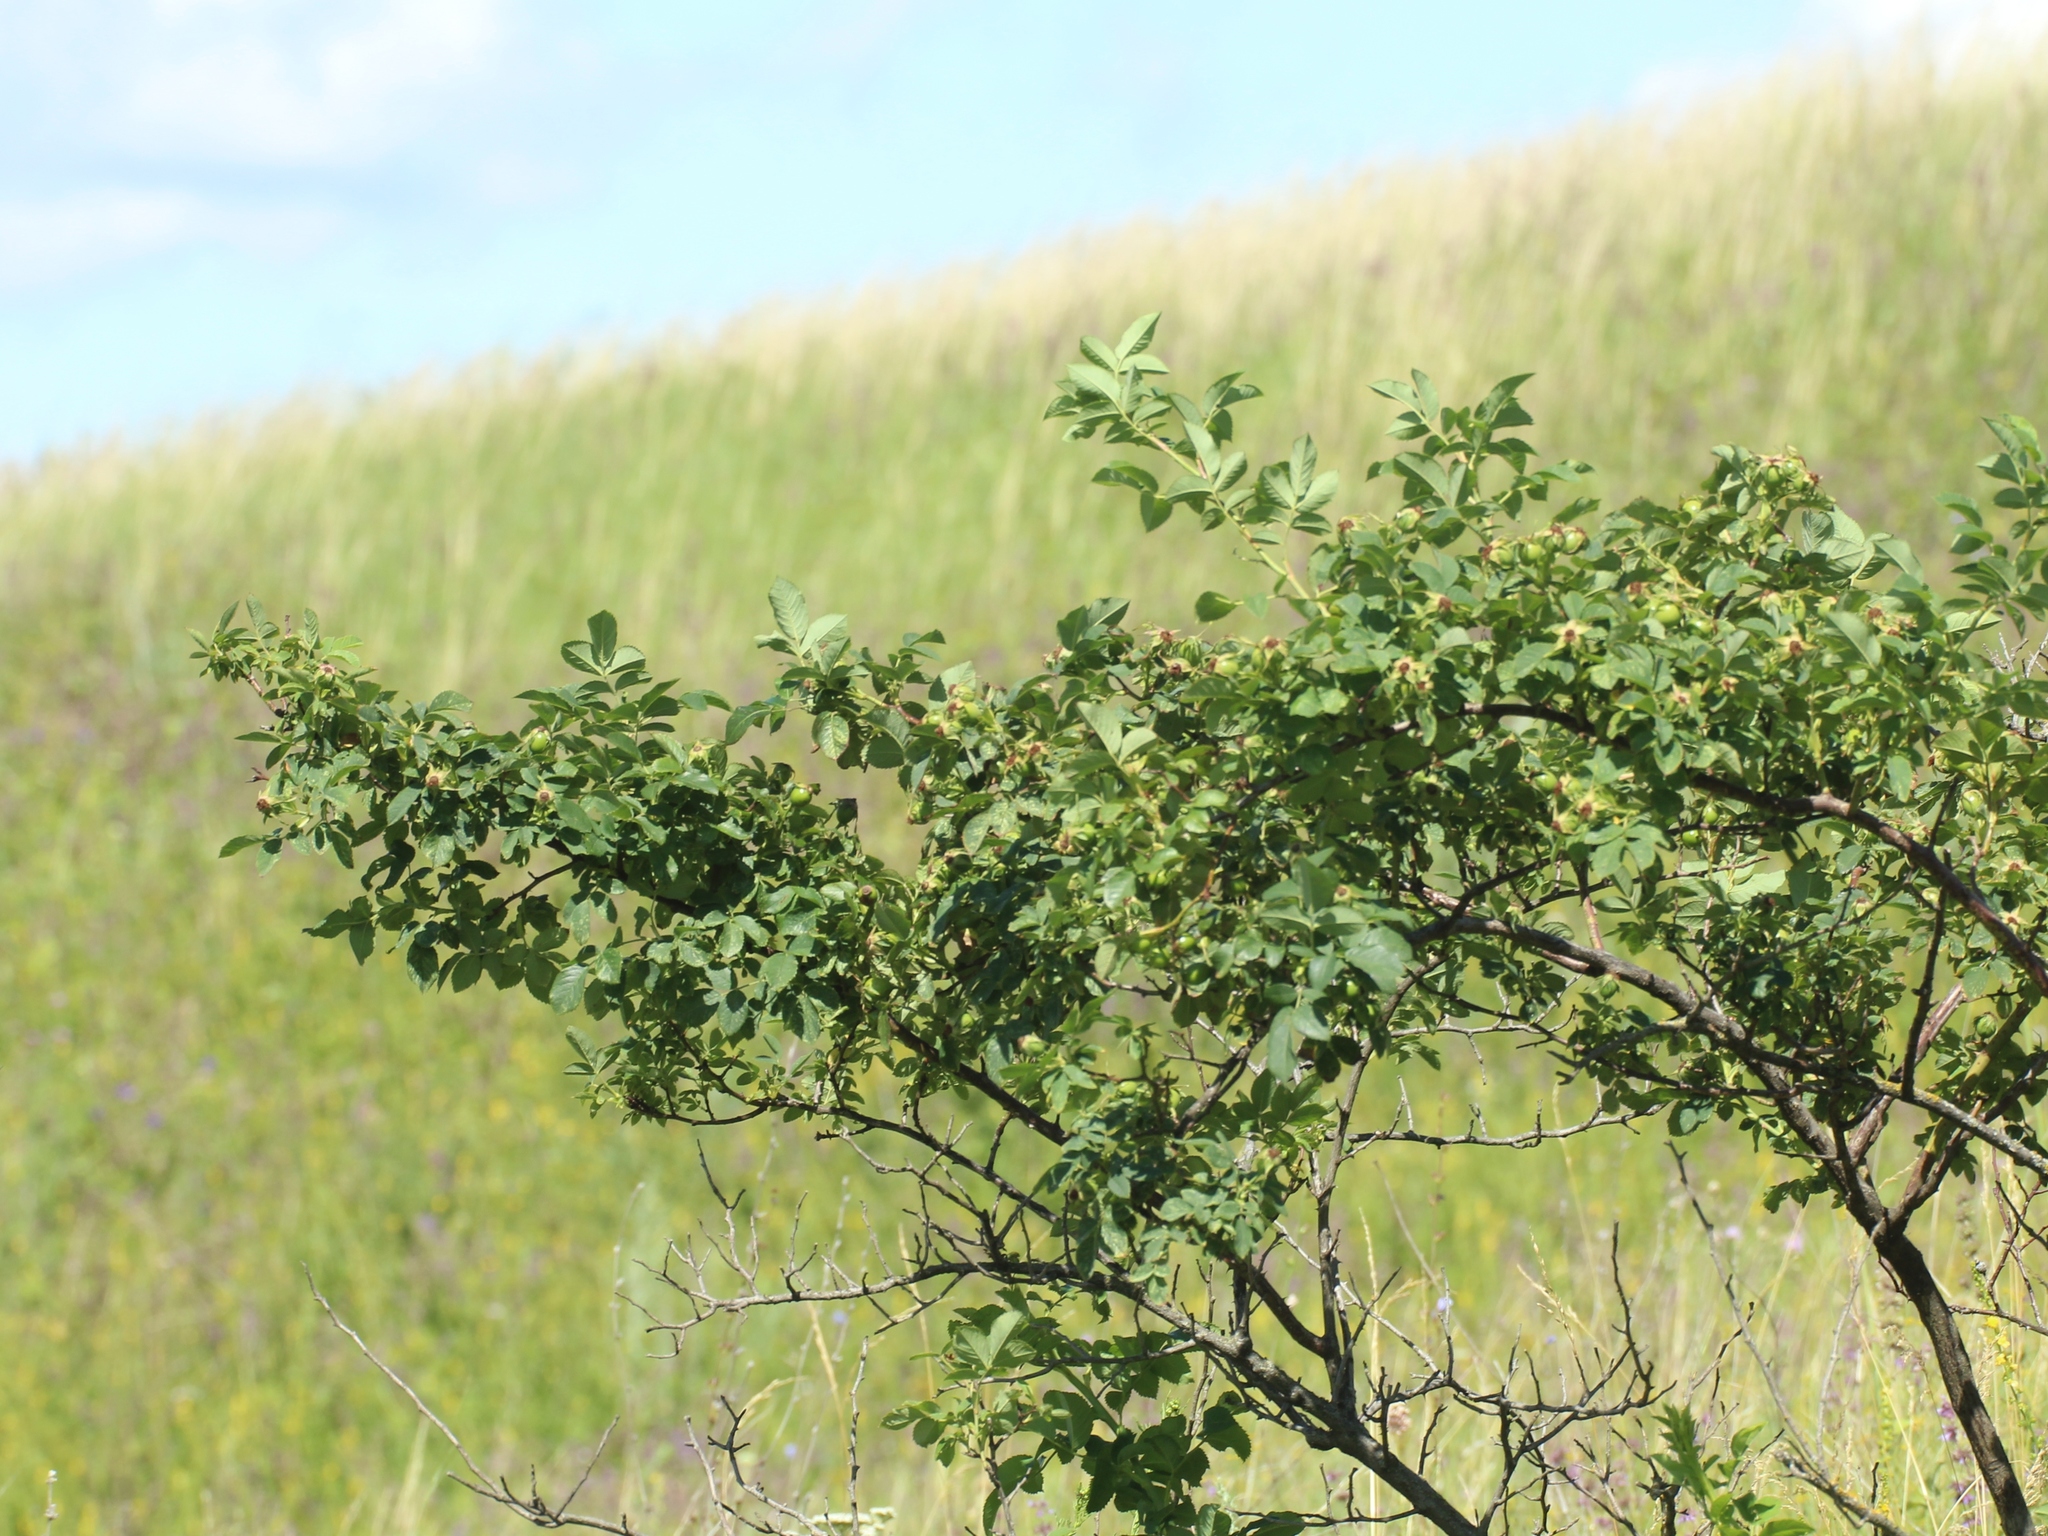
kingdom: Plantae
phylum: Tracheophyta
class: Magnoliopsida
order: Rosales
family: Rosaceae
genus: Rosa
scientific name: Rosa
